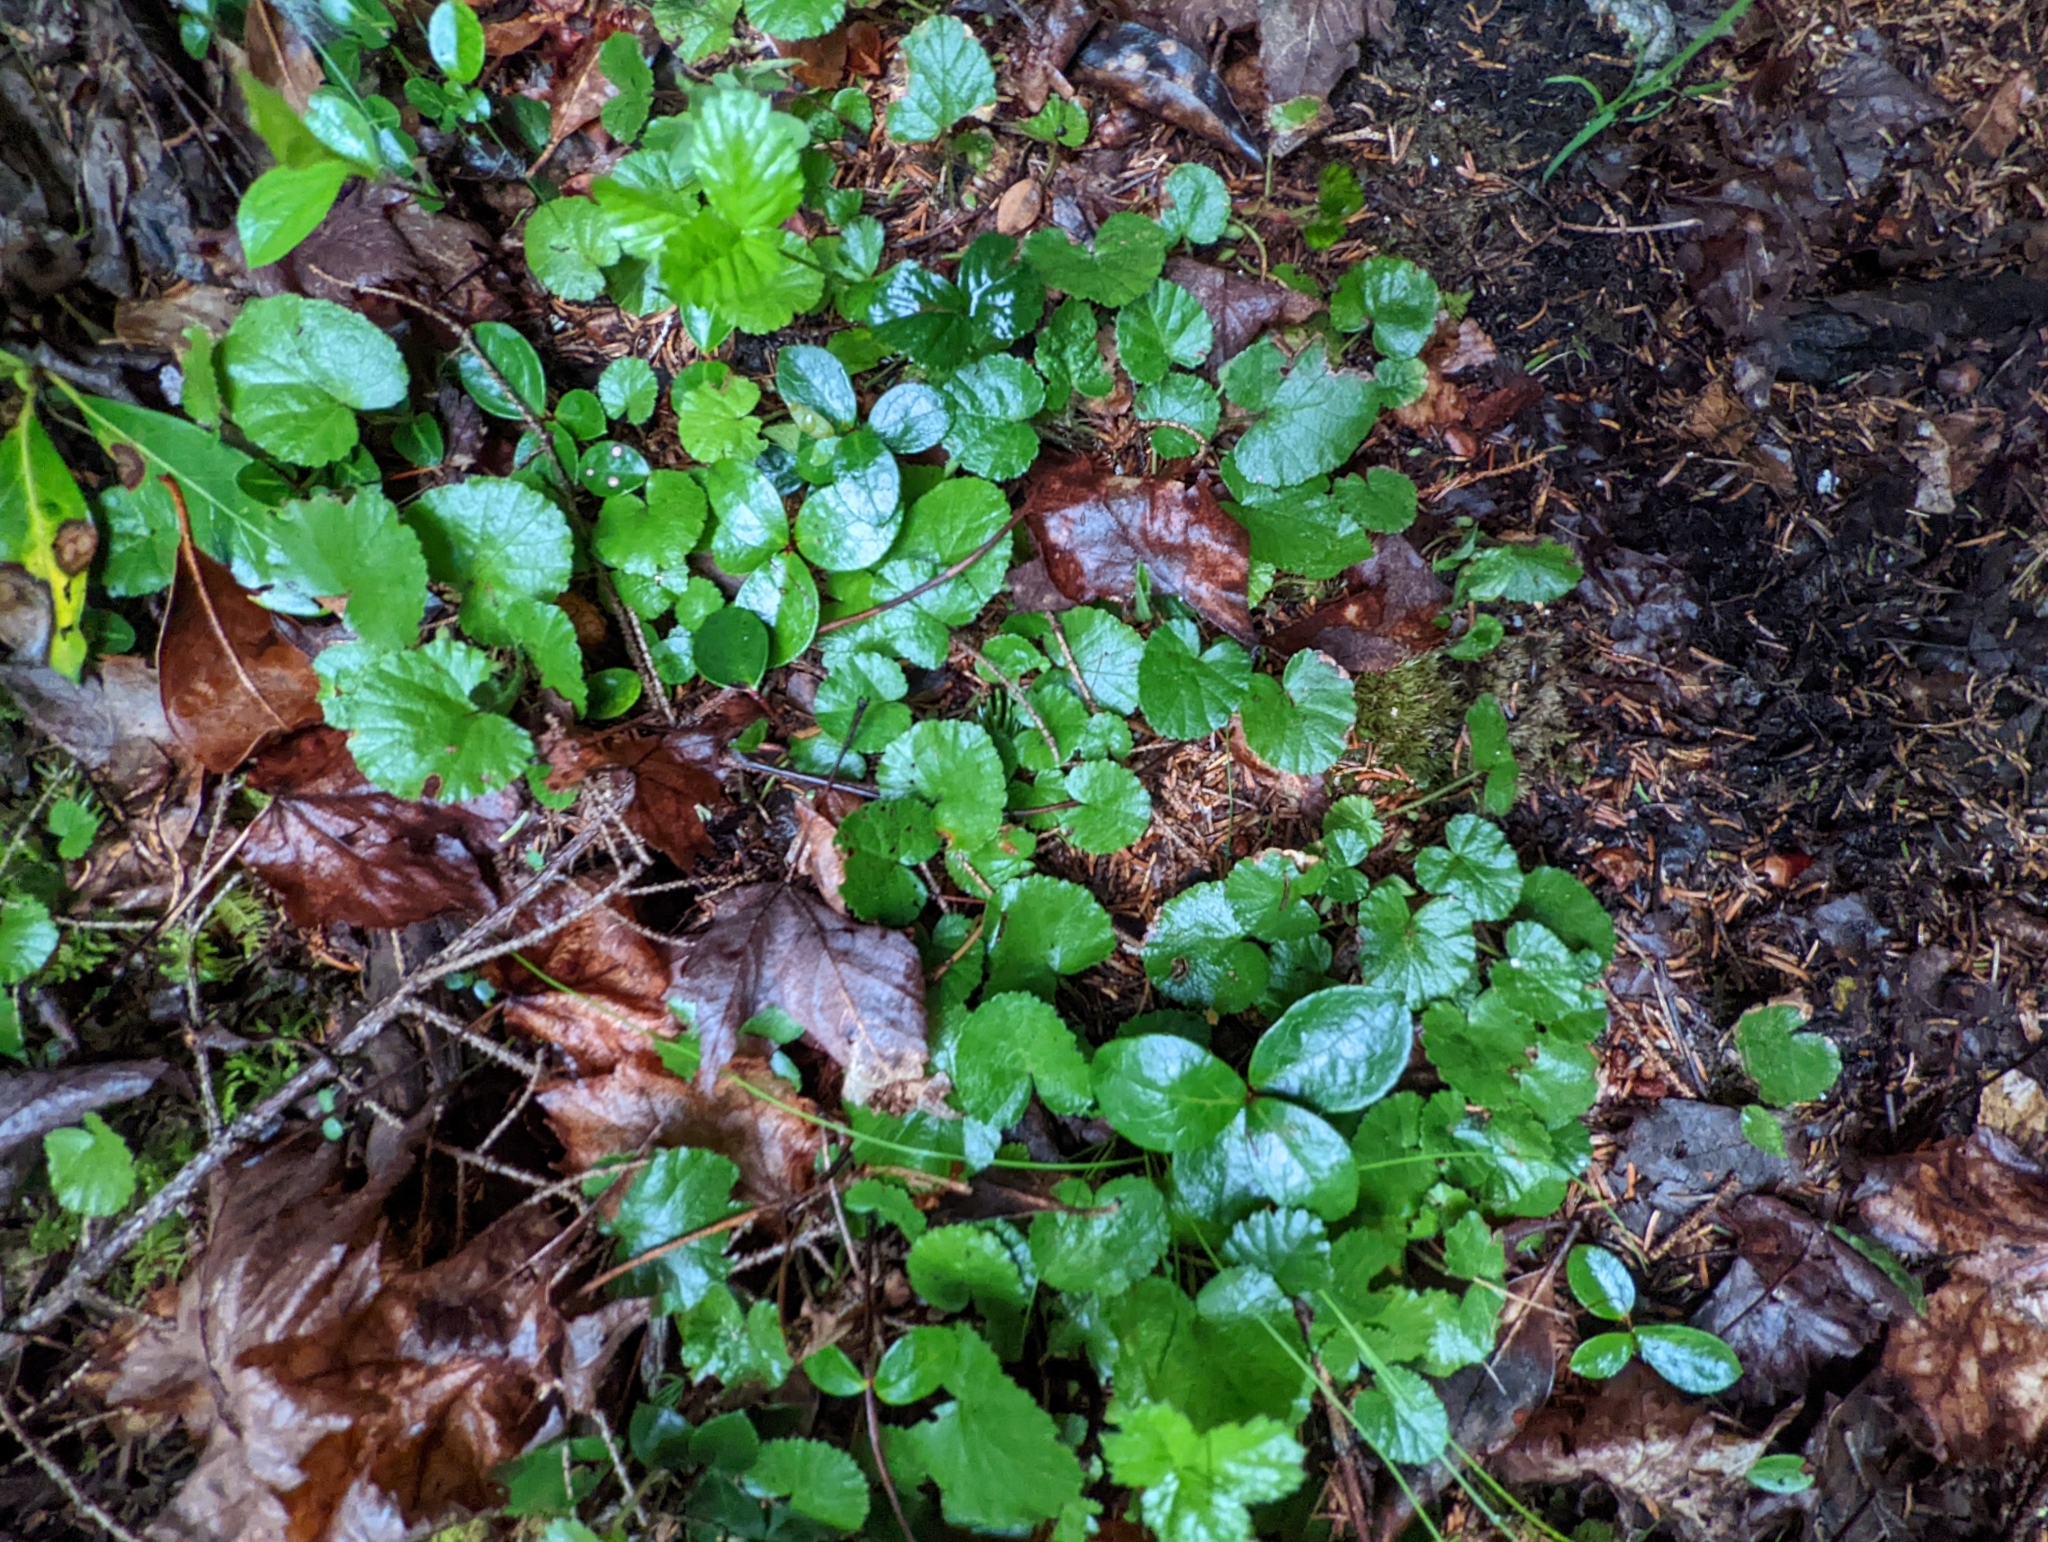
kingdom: Plantae
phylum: Tracheophyta
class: Magnoliopsida
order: Rosales
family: Rosaceae
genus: Dalibarda
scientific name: Dalibarda repens
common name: Dewdrop
